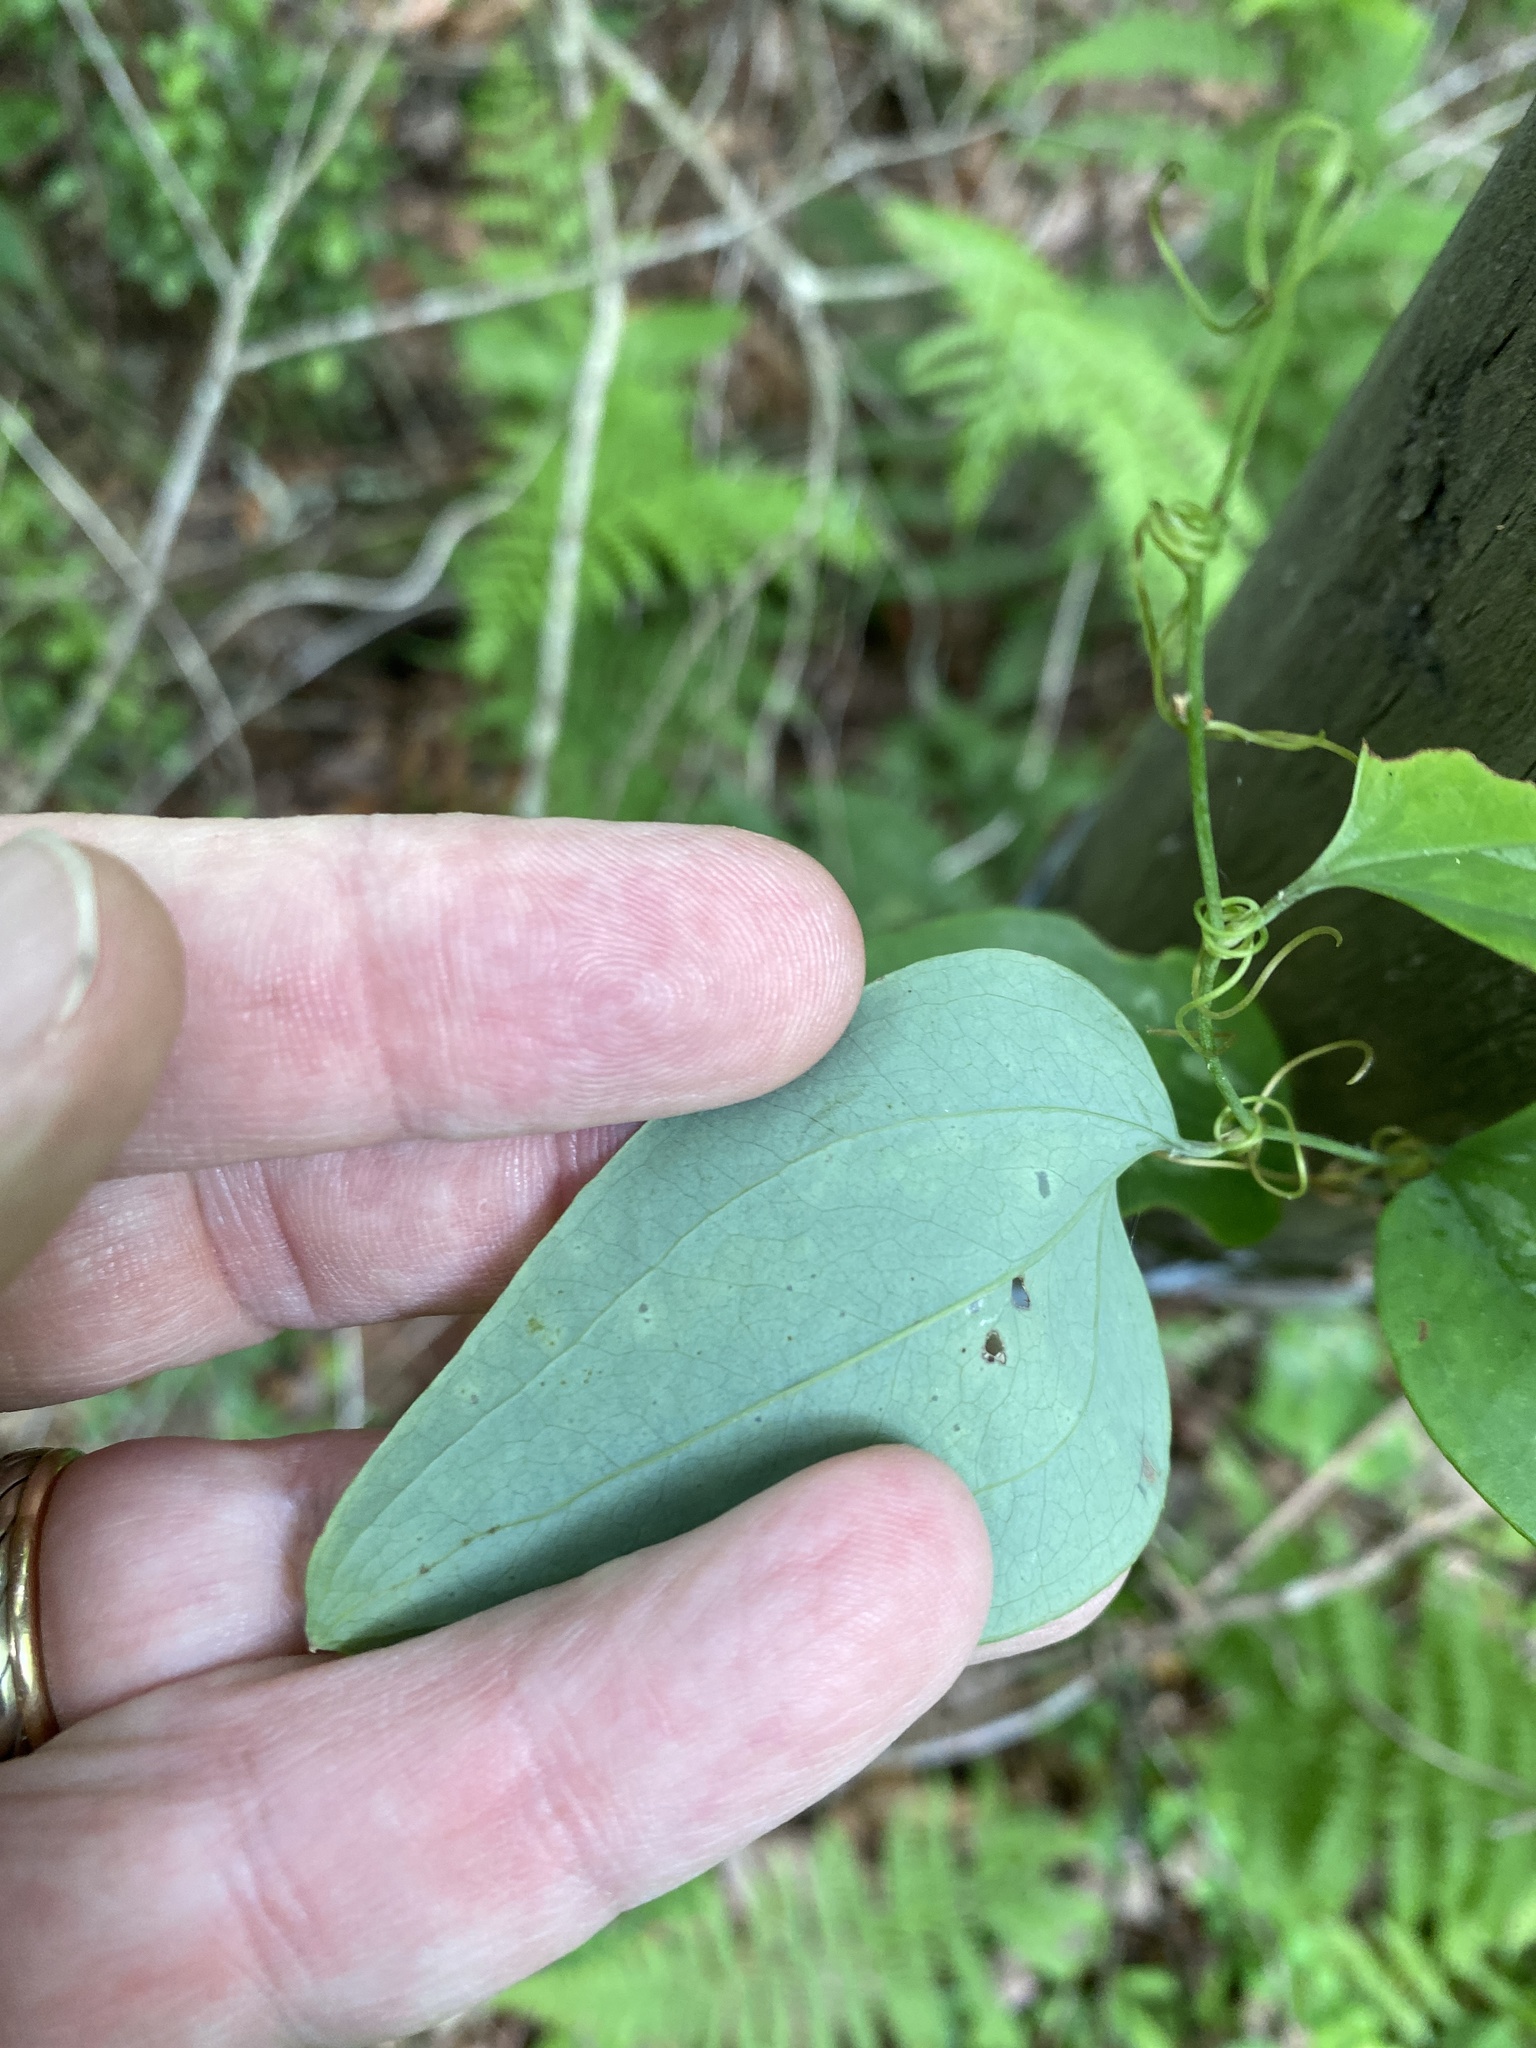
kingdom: Plantae
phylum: Tracheophyta
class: Liliopsida
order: Liliales
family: Smilacaceae
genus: Smilax
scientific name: Smilax glauca
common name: Cat greenbrier
